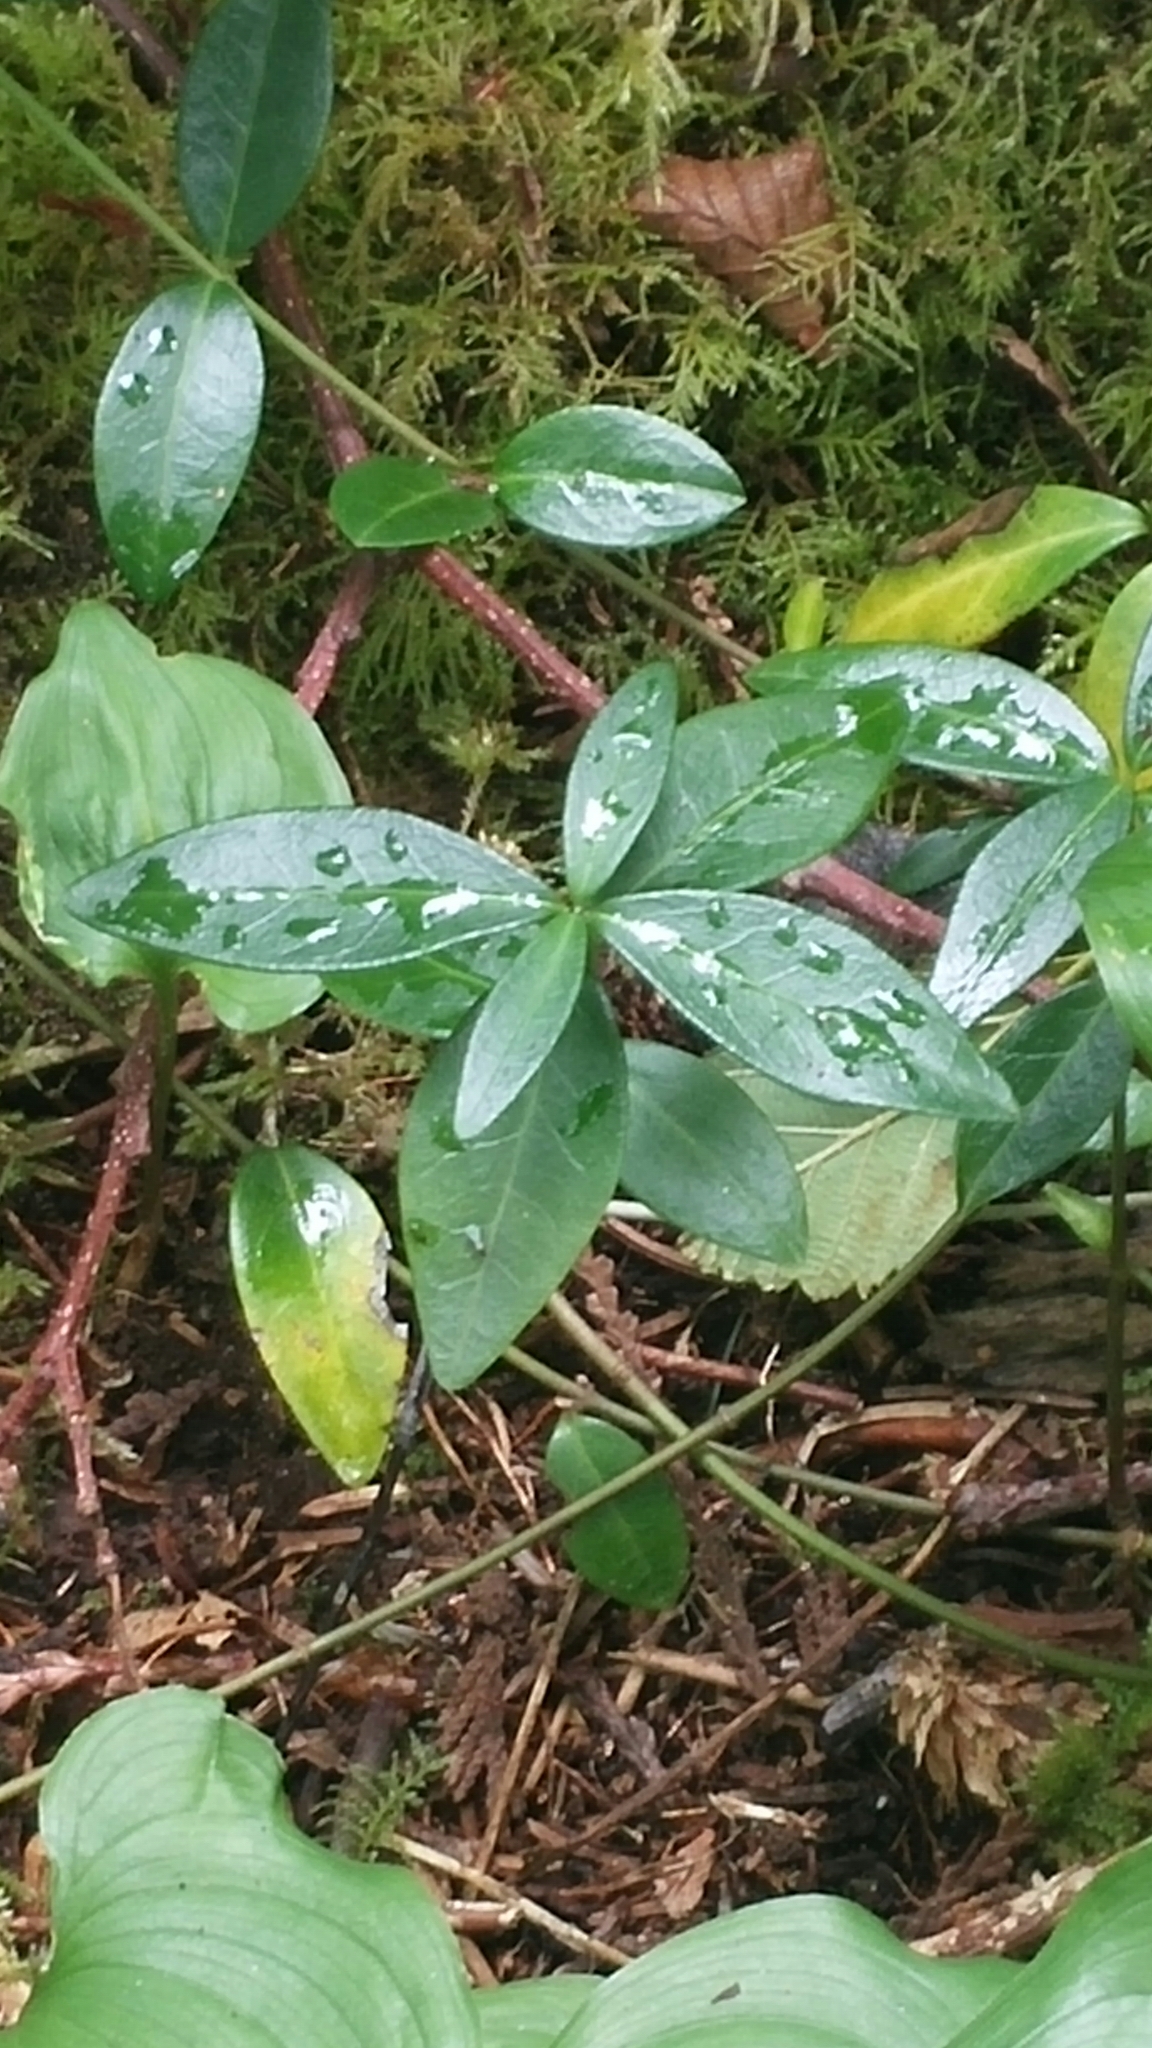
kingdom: Plantae
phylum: Tracheophyta
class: Magnoliopsida
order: Gentianales
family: Apocynaceae
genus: Vinca
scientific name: Vinca minor
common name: Lesser periwinkle
